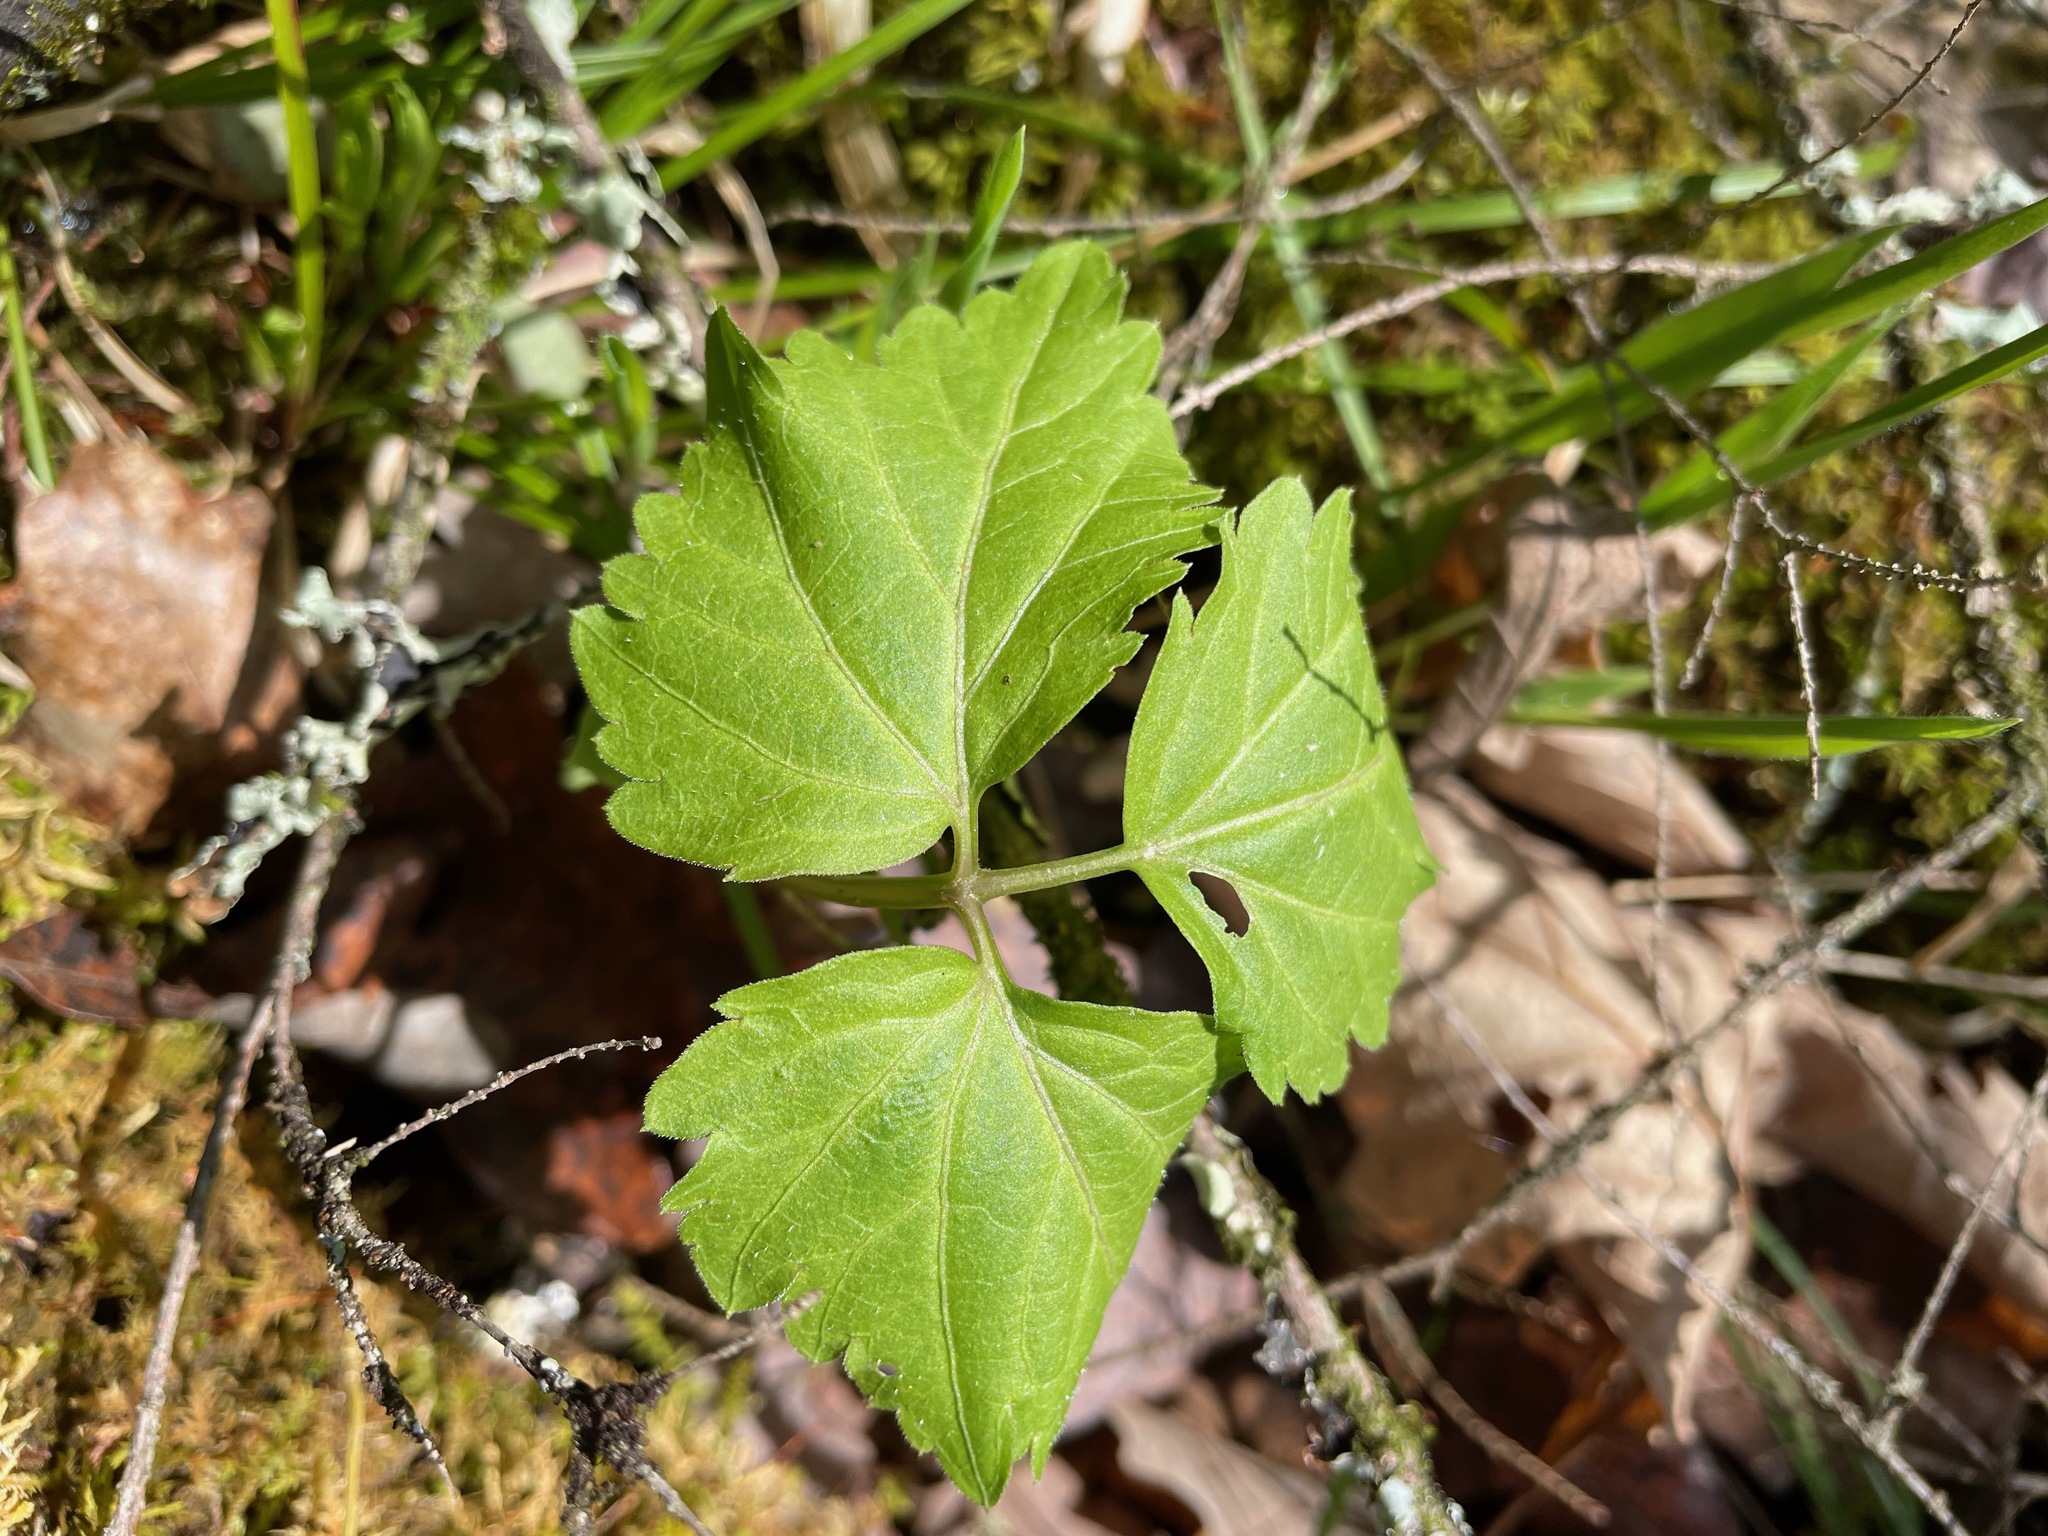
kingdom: Plantae
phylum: Tracheophyta
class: Magnoliopsida
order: Brassicales
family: Brassicaceae
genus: Cardamine
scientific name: Cardamine diphylla
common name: Broad-leaved toothwort
